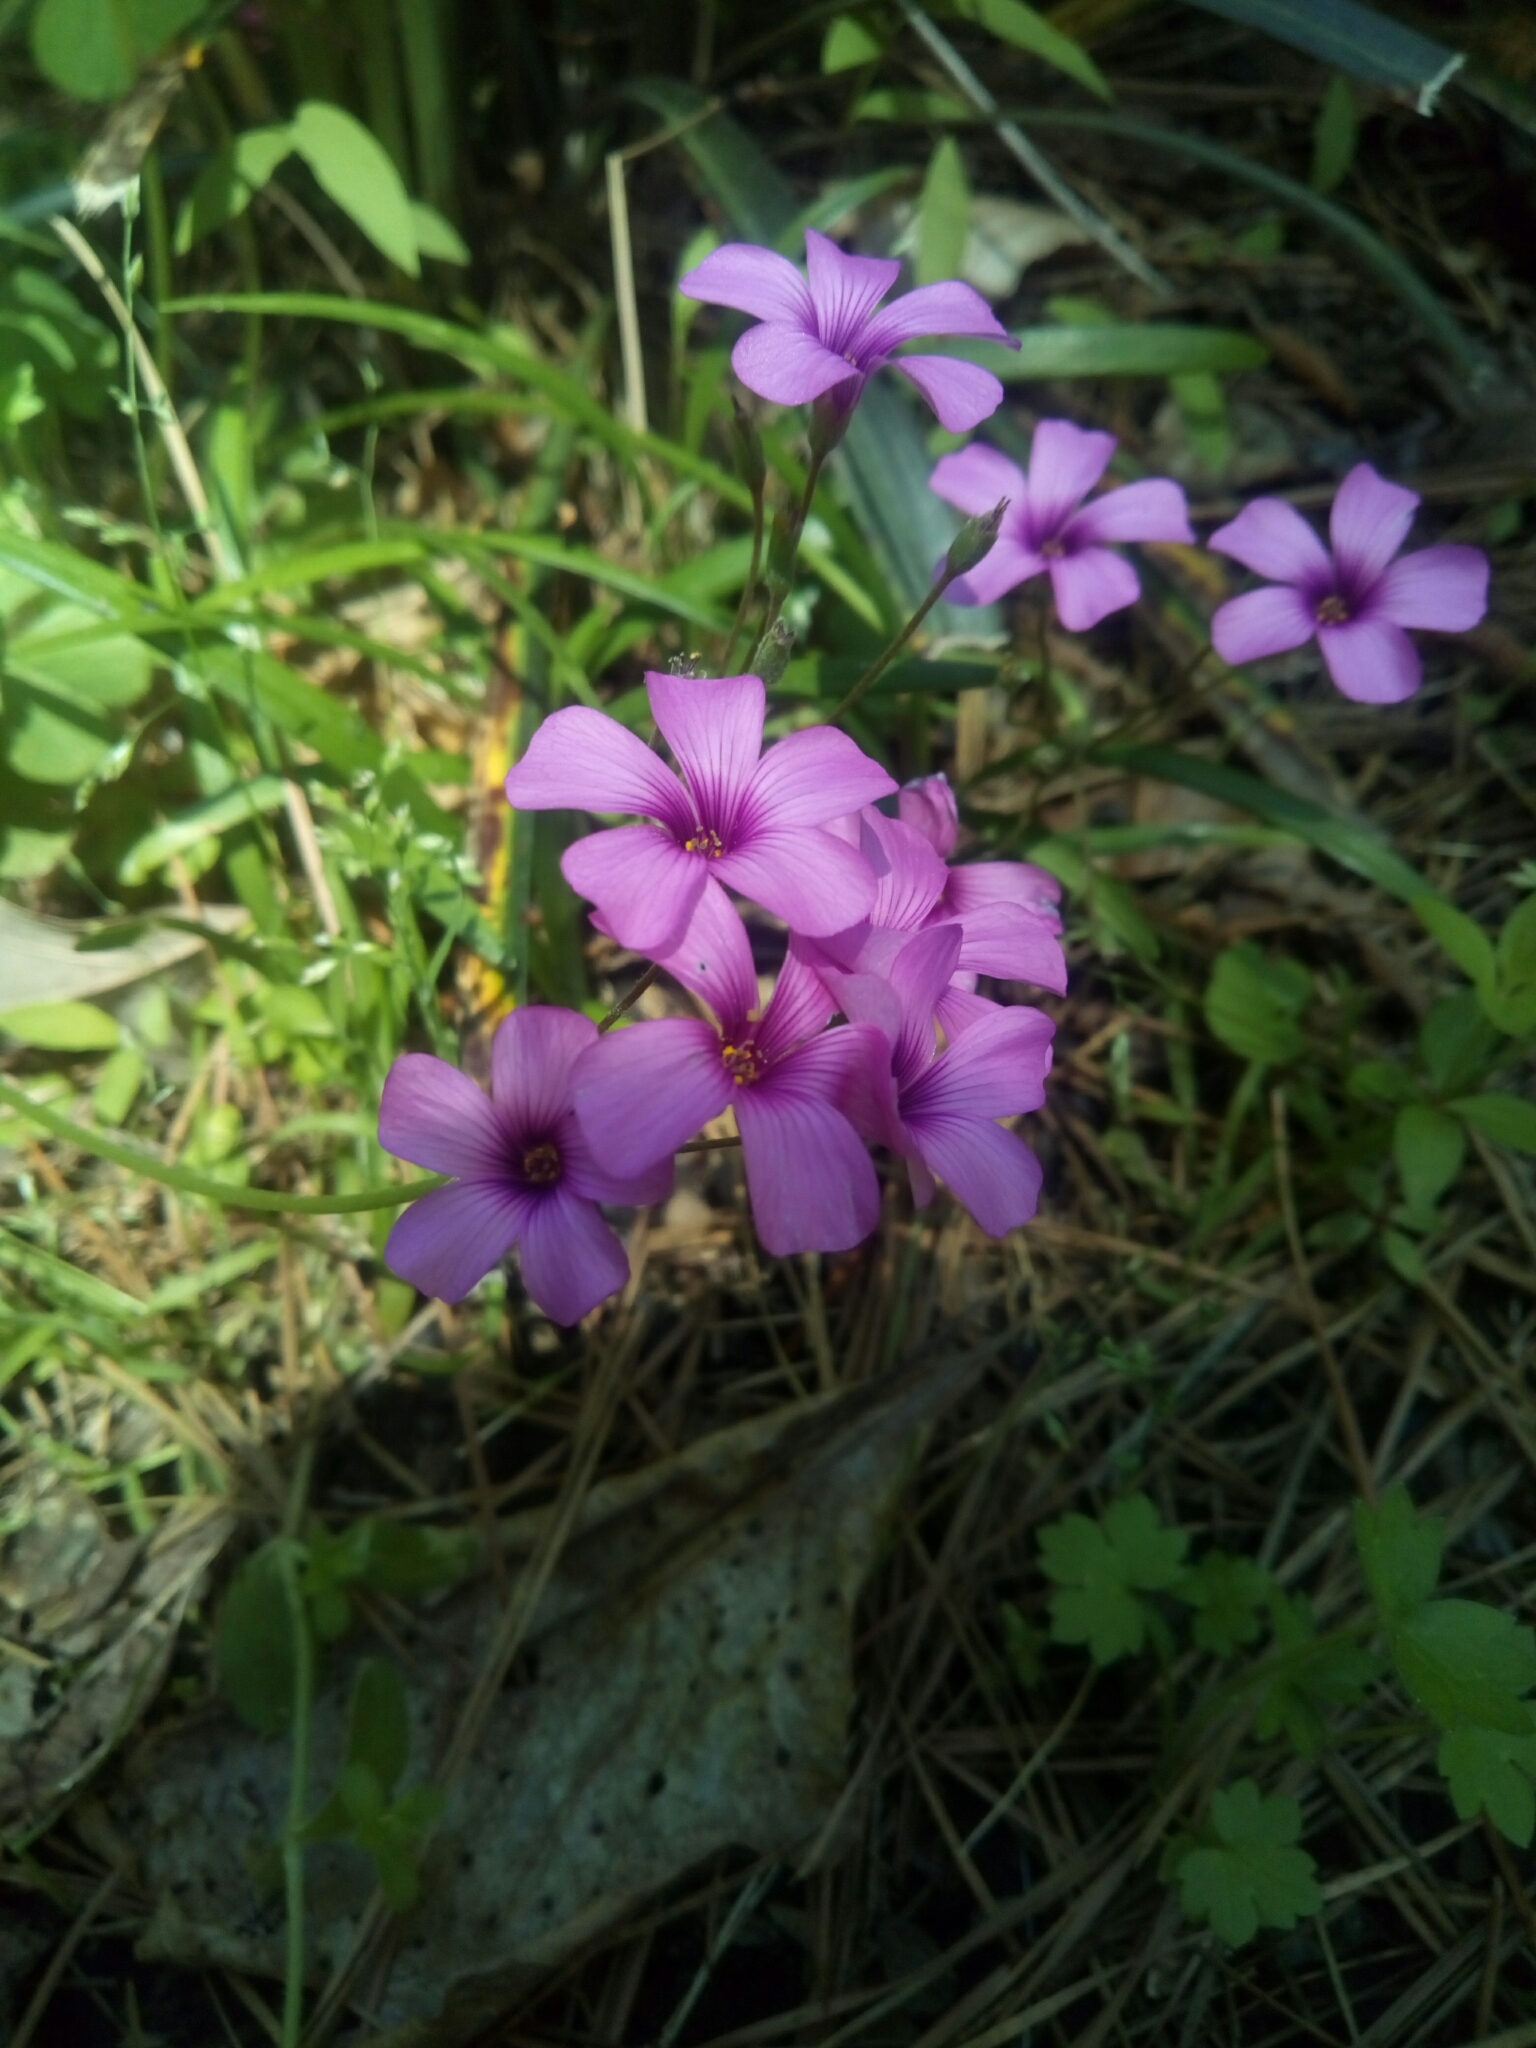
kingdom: Plantae
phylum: Tracheophyta
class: Magnoliopsida
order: Oxalidales
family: Oxalidaceae
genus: Oxalis
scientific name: Oxalis articulata
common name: Pink-sorrel
